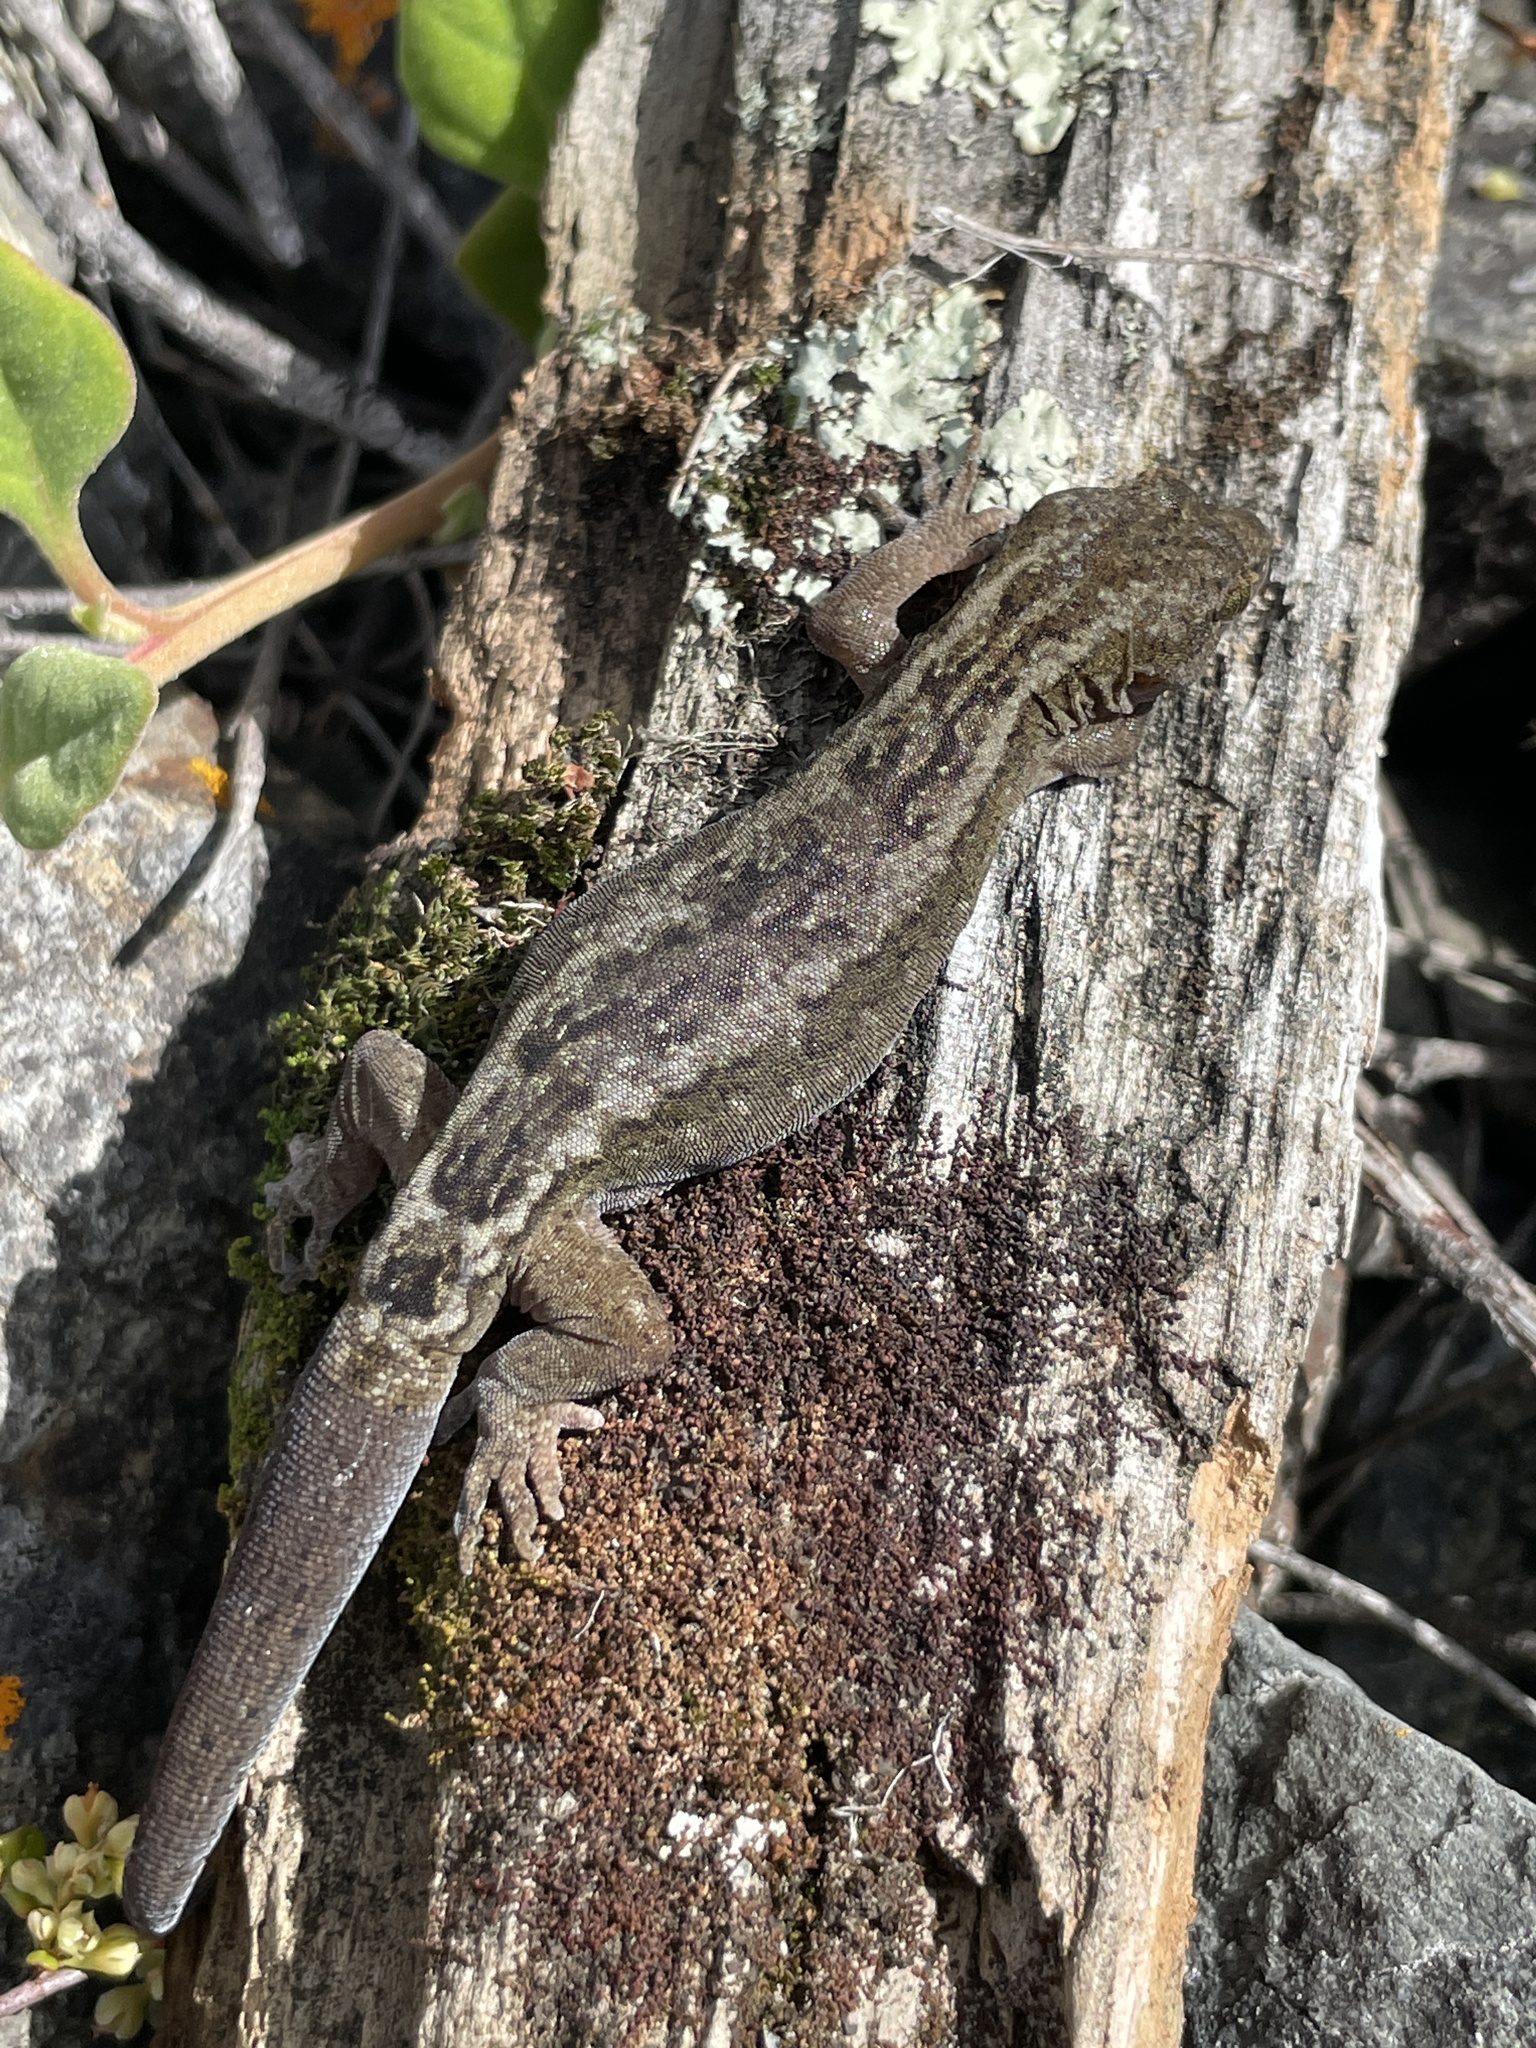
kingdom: Animalia
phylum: Chordata
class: Squamata
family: Diplodactylidae
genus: Woodworthia
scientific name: Woodworthia maculata
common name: Raukawa gecko
